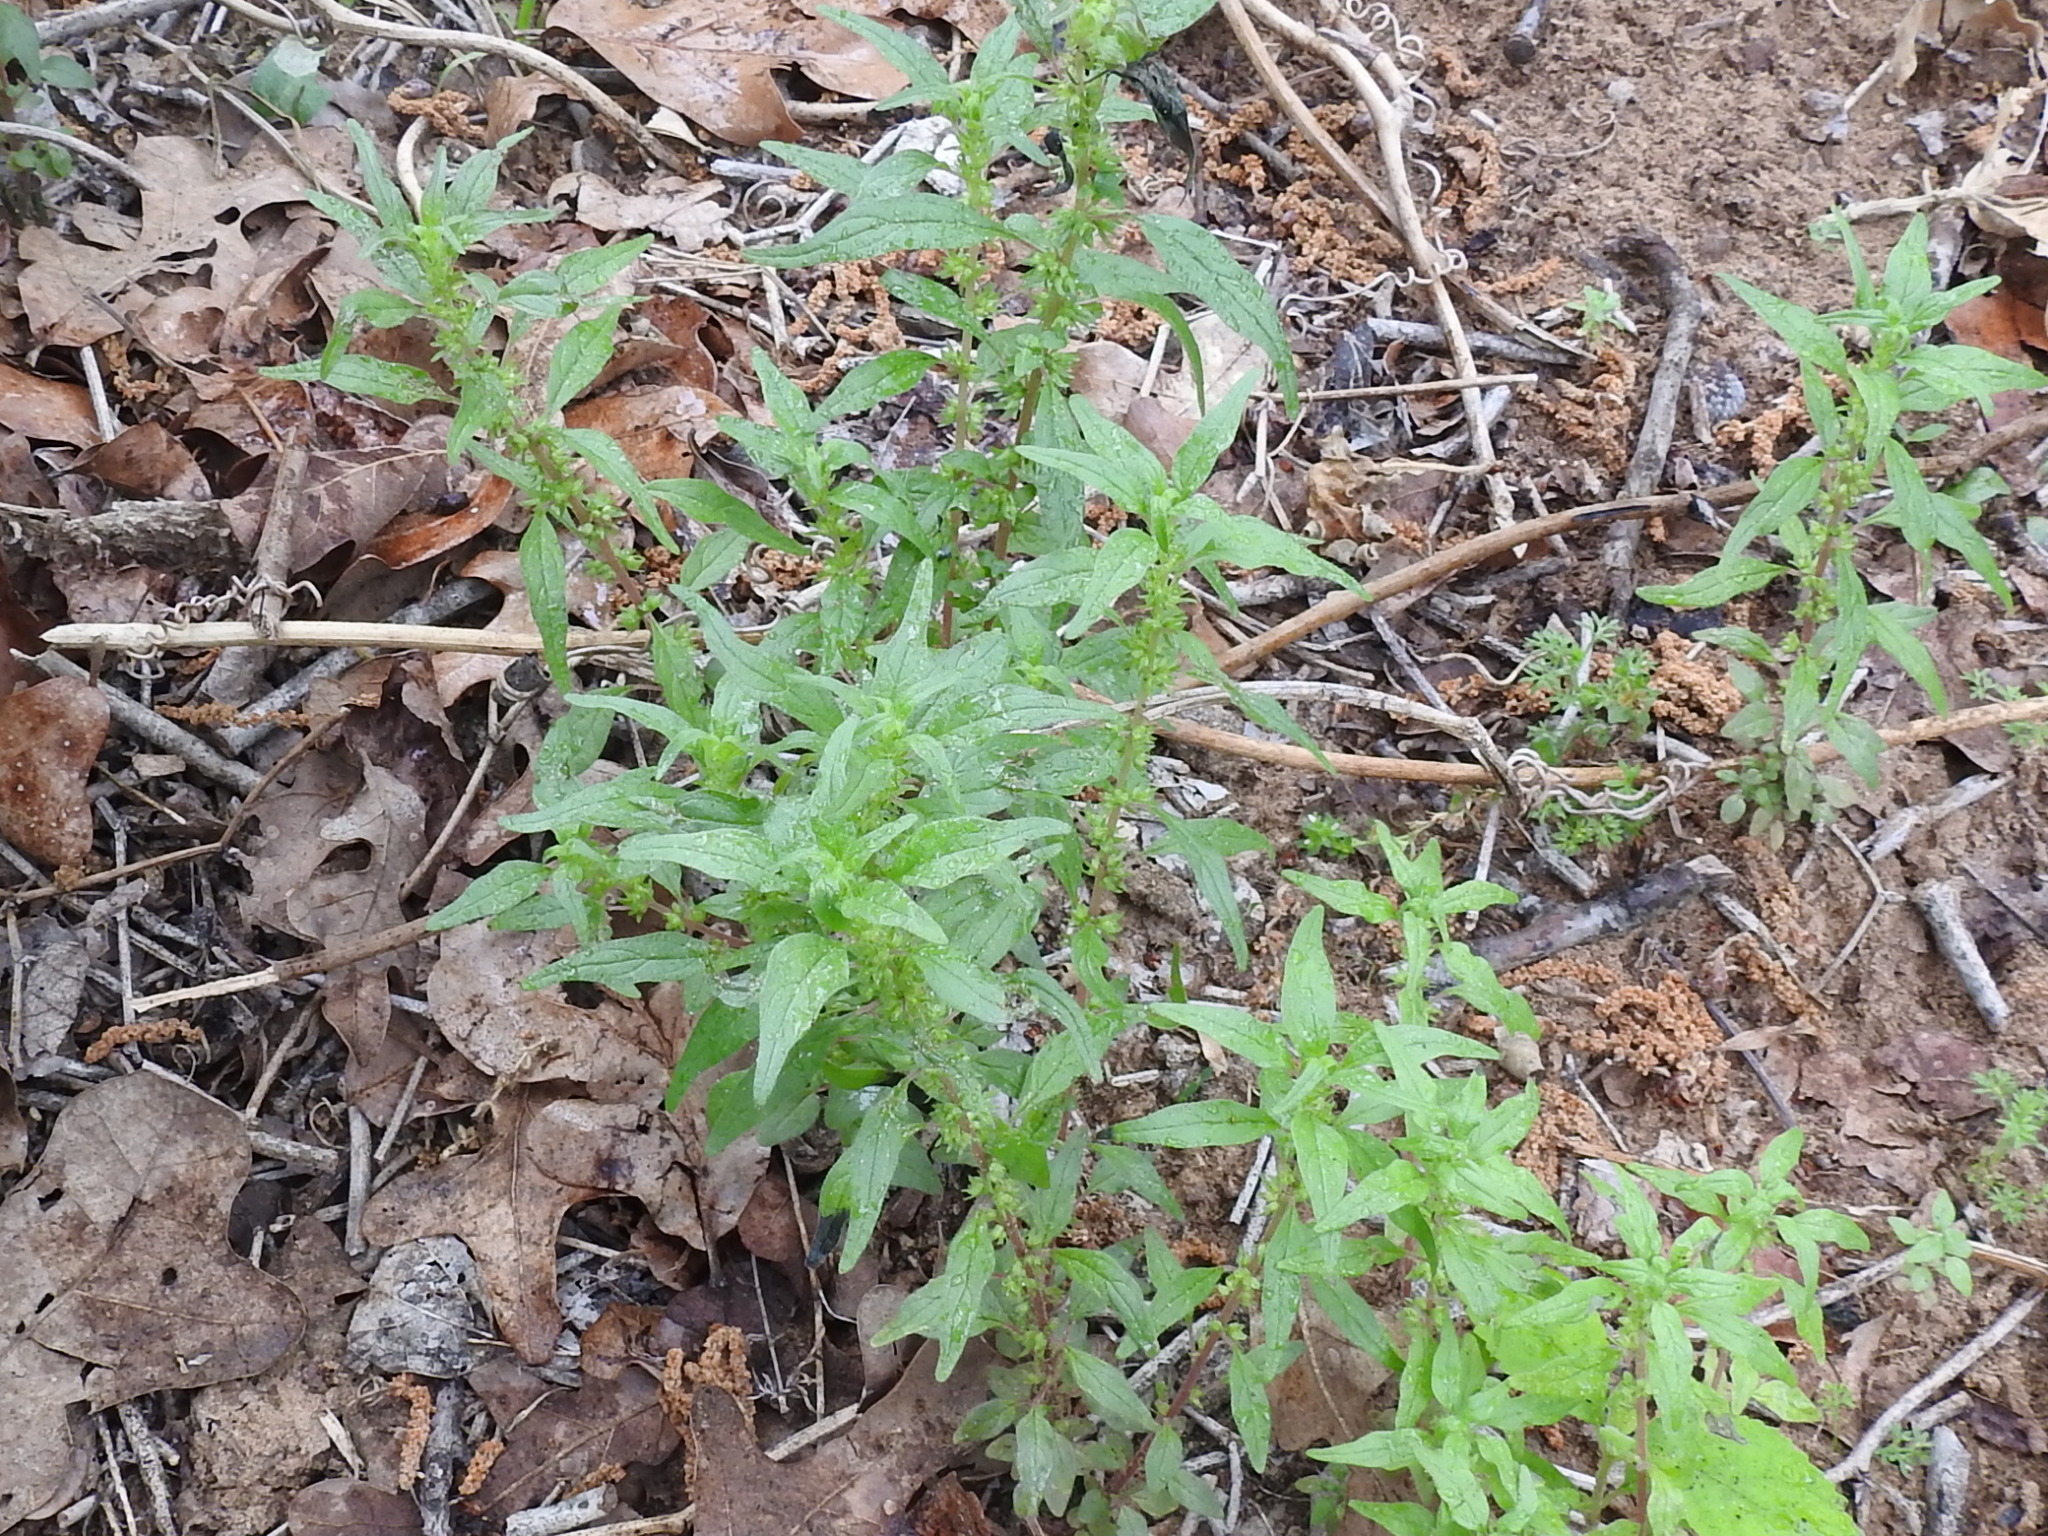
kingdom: Plantae
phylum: Tracheophyta
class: Magnoliopsida
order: Rosales
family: Urticaceae
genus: Parietaria
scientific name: Parietaria pensylvanica
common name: Pennsylvania pellitory
